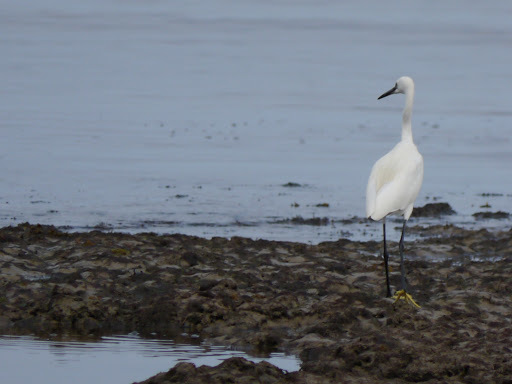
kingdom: Animalia
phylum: Chordata
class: Aves
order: Pelecaniformes
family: Ardeidae
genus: Egretta
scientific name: Egretta garzetta
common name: Little egret
